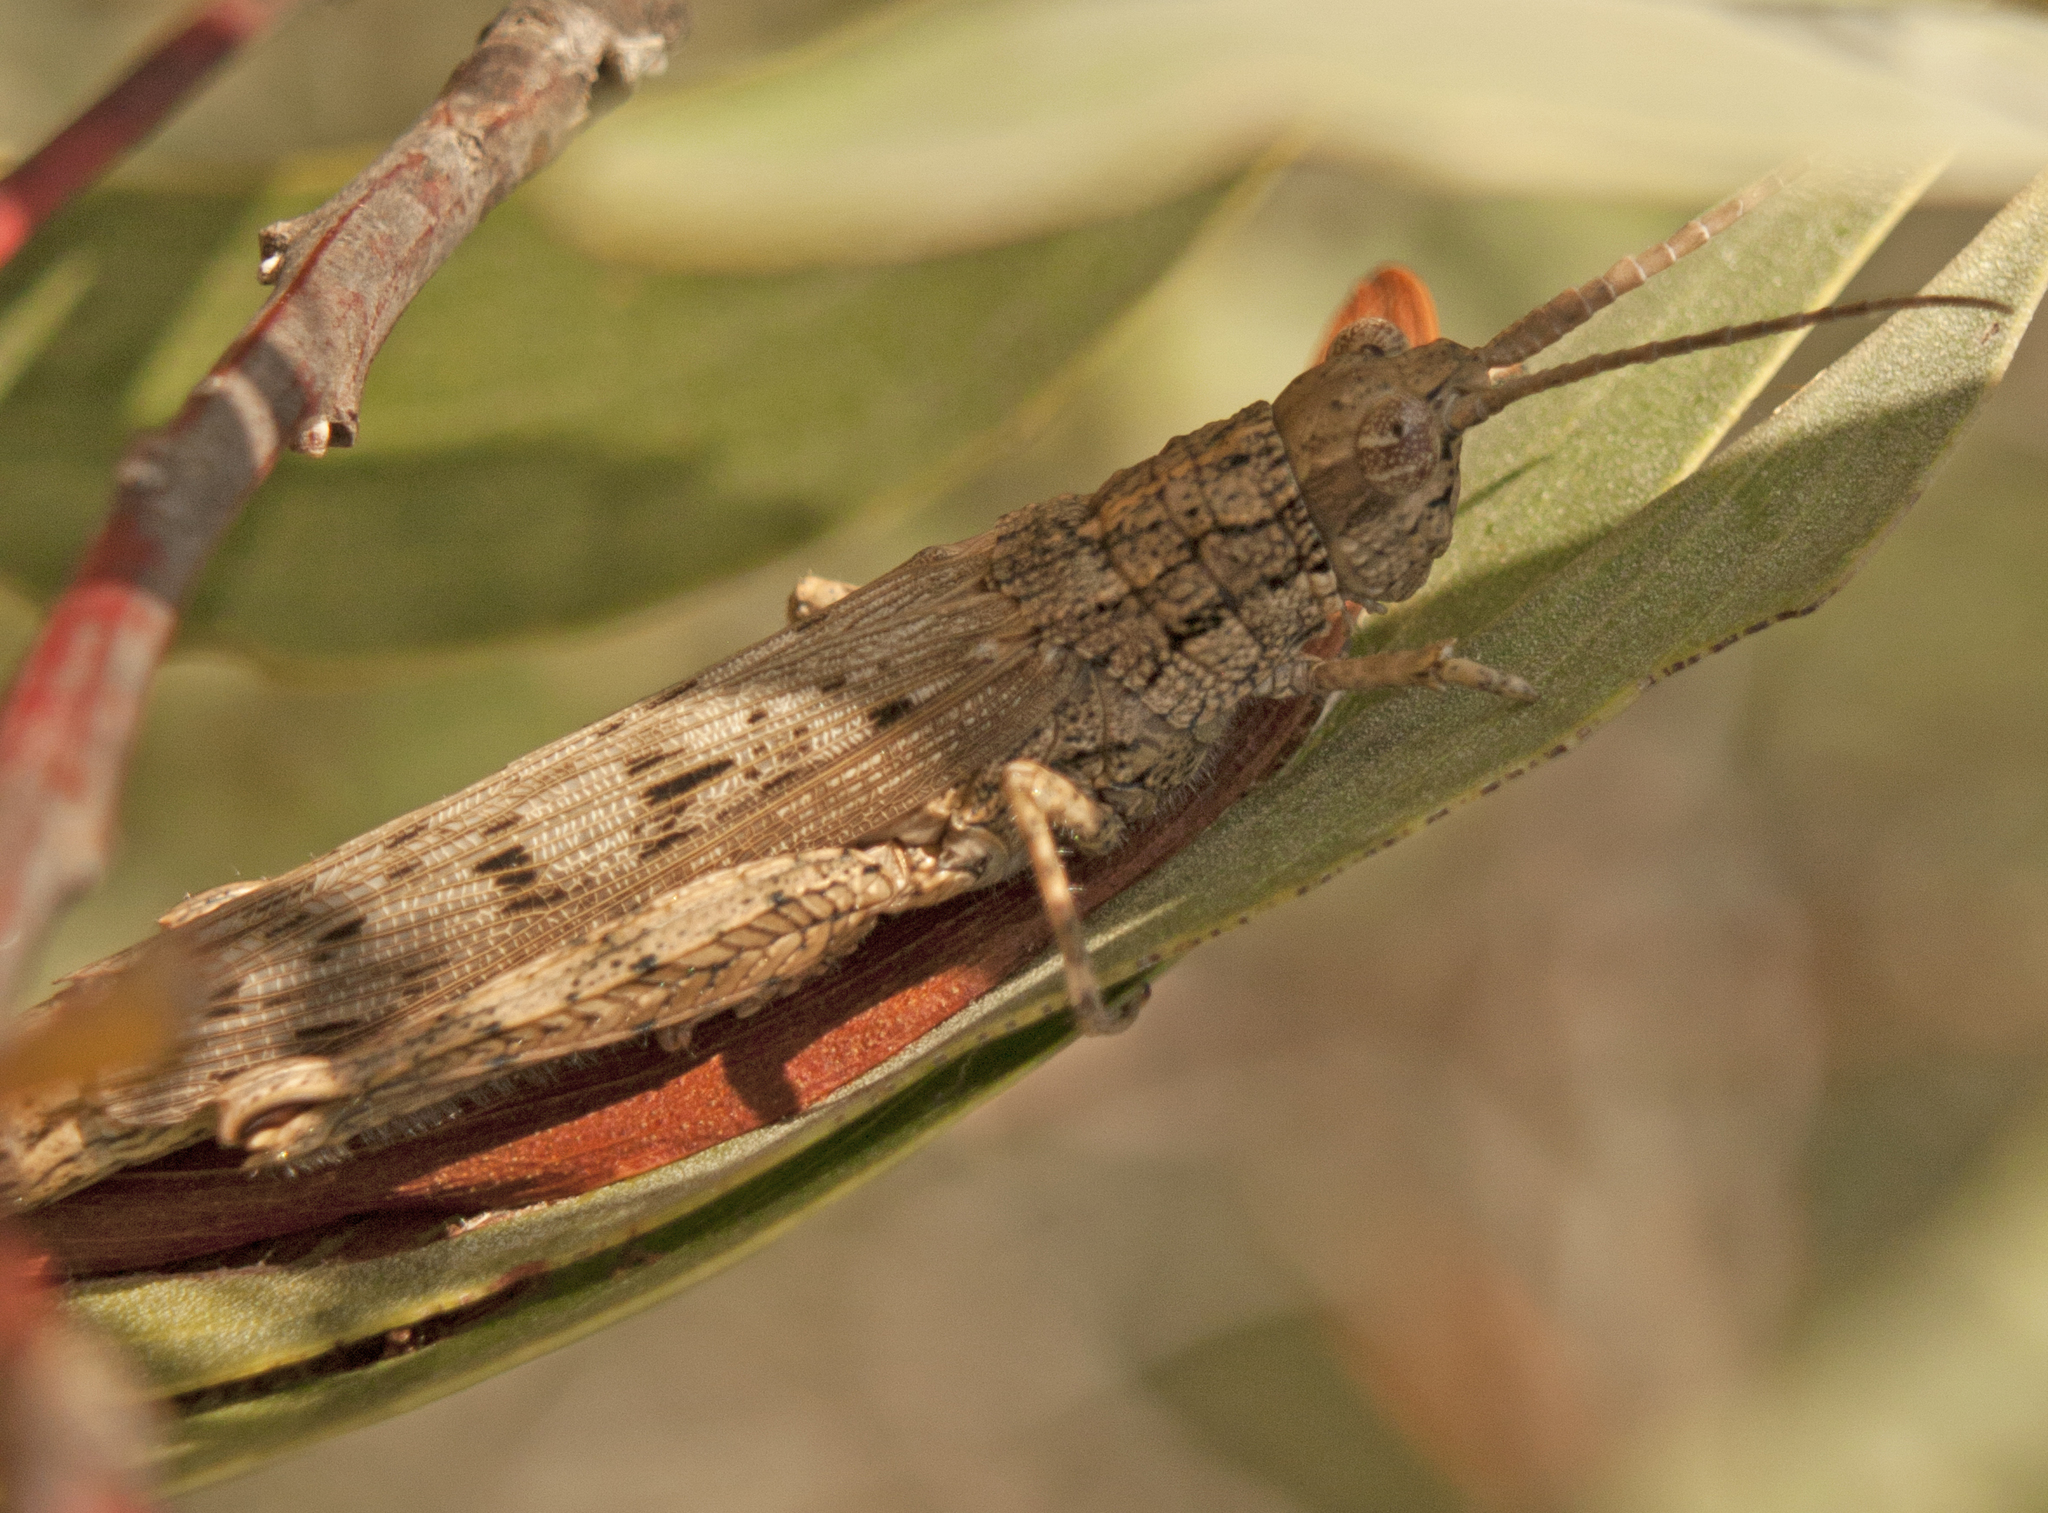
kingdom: Animalia
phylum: Arthropoda
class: Insecta
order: Orthoptera
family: Acrididae
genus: Adreppus
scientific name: Adreppus fallax
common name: Common adreppus
